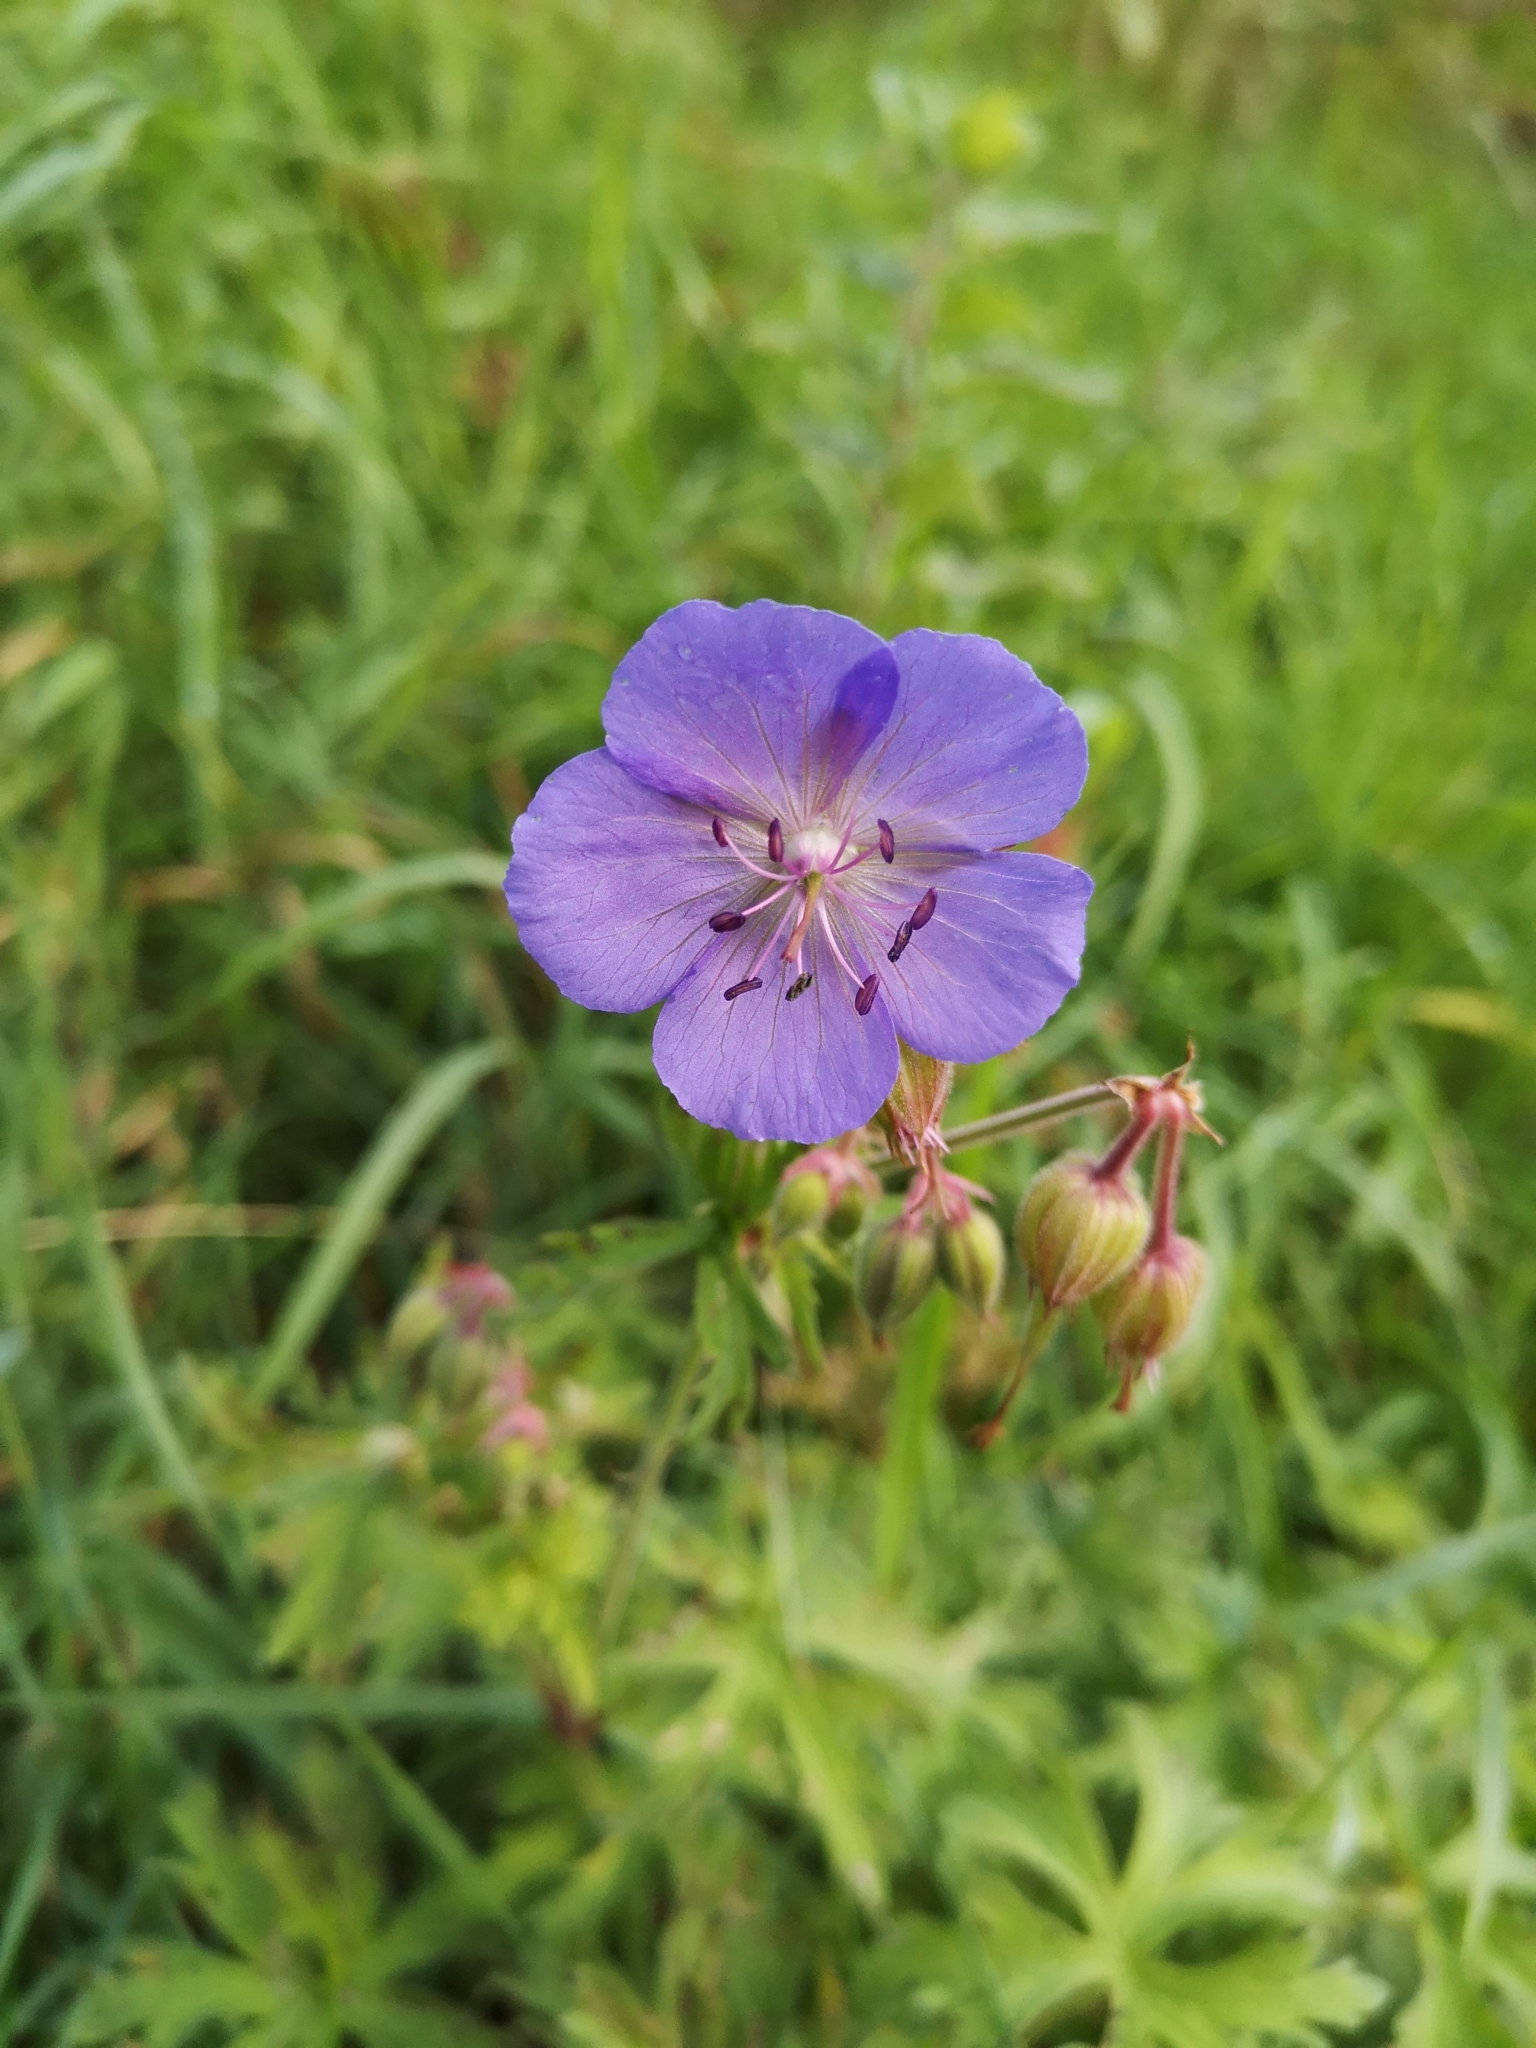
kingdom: Plantae
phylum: Tracheophyta
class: Magnoliopsida
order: Geraniales
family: Geraniaceae
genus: Geranium
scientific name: Geranium pratense
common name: Meadow crane's-bill
